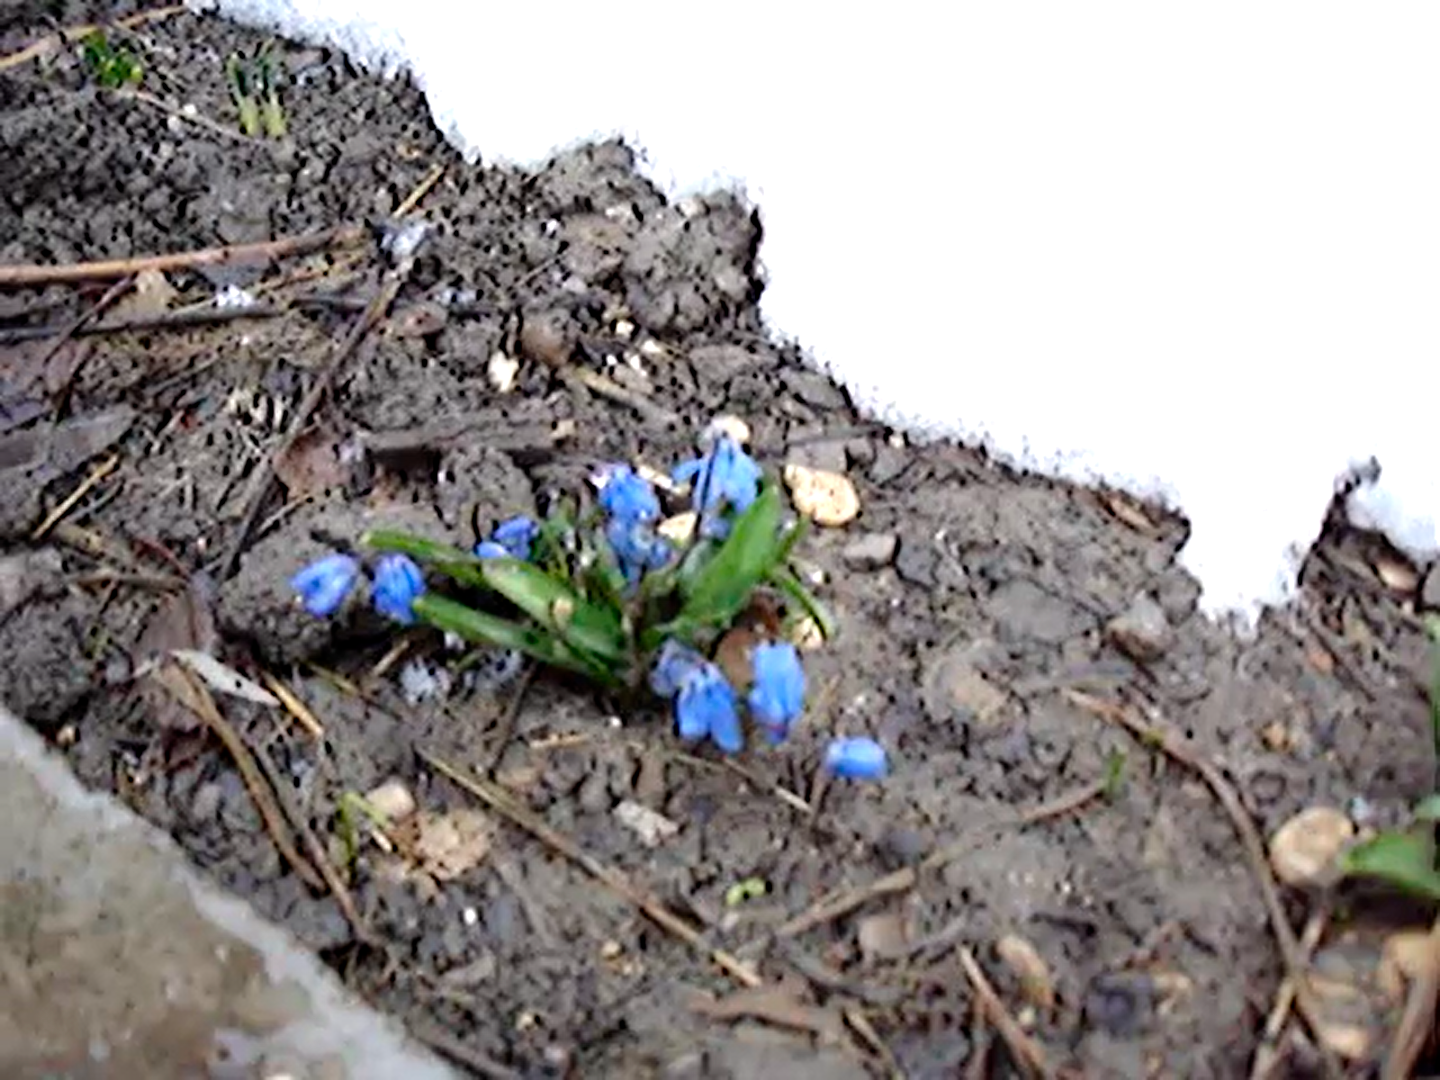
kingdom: Plantae
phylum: Tracheophyta
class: Liliopsida
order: Asparagales
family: Asparagaceae
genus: Scilla
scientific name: Scilla siberica
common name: Siberian squill
